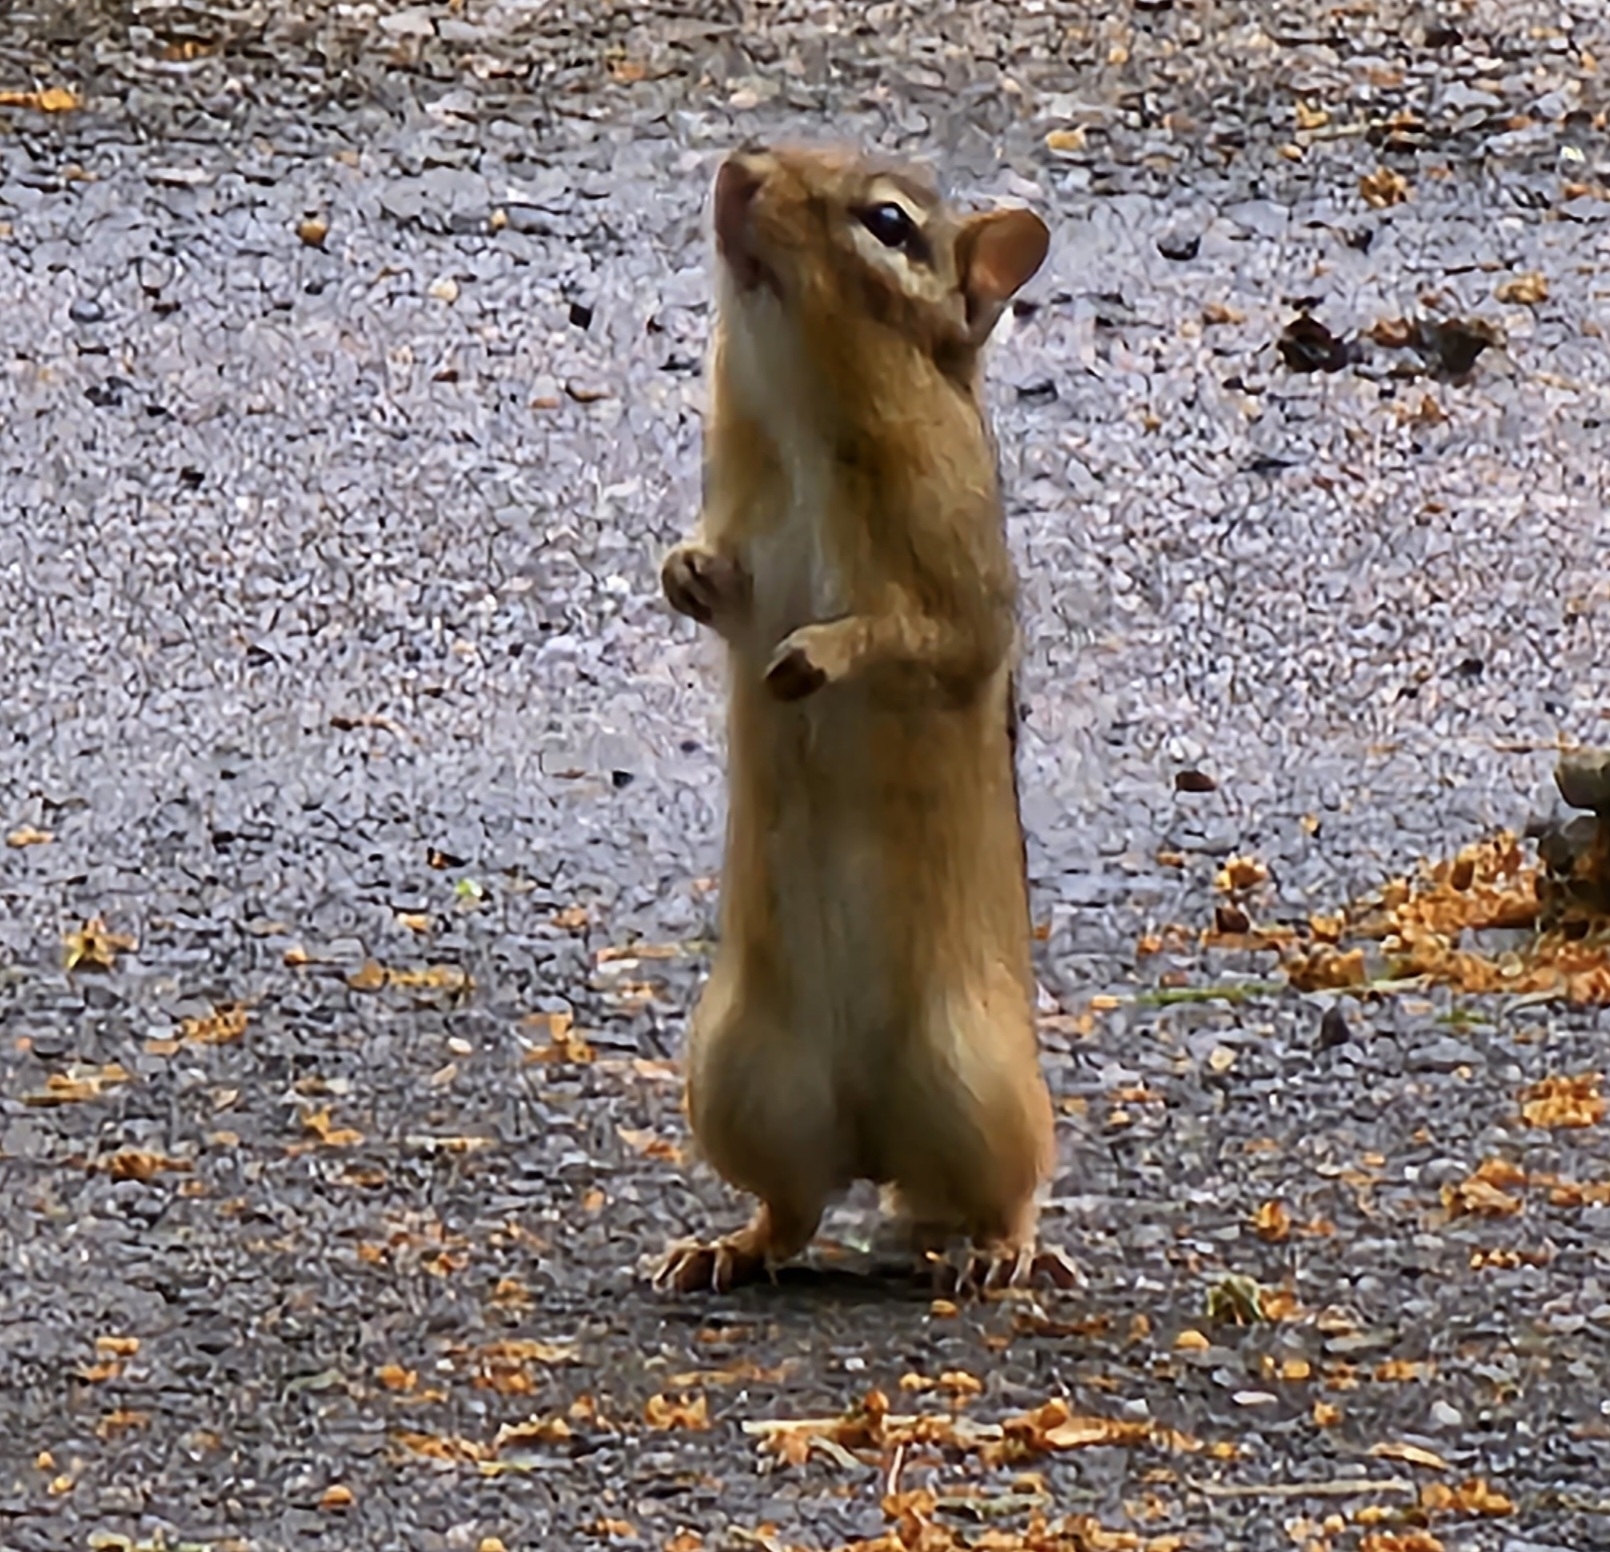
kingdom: Animalia
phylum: Chordata
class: Mammalia
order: Rodentia
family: Sciuridae
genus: Tamias
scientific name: Tamias striatus
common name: Eastern chipmunk
